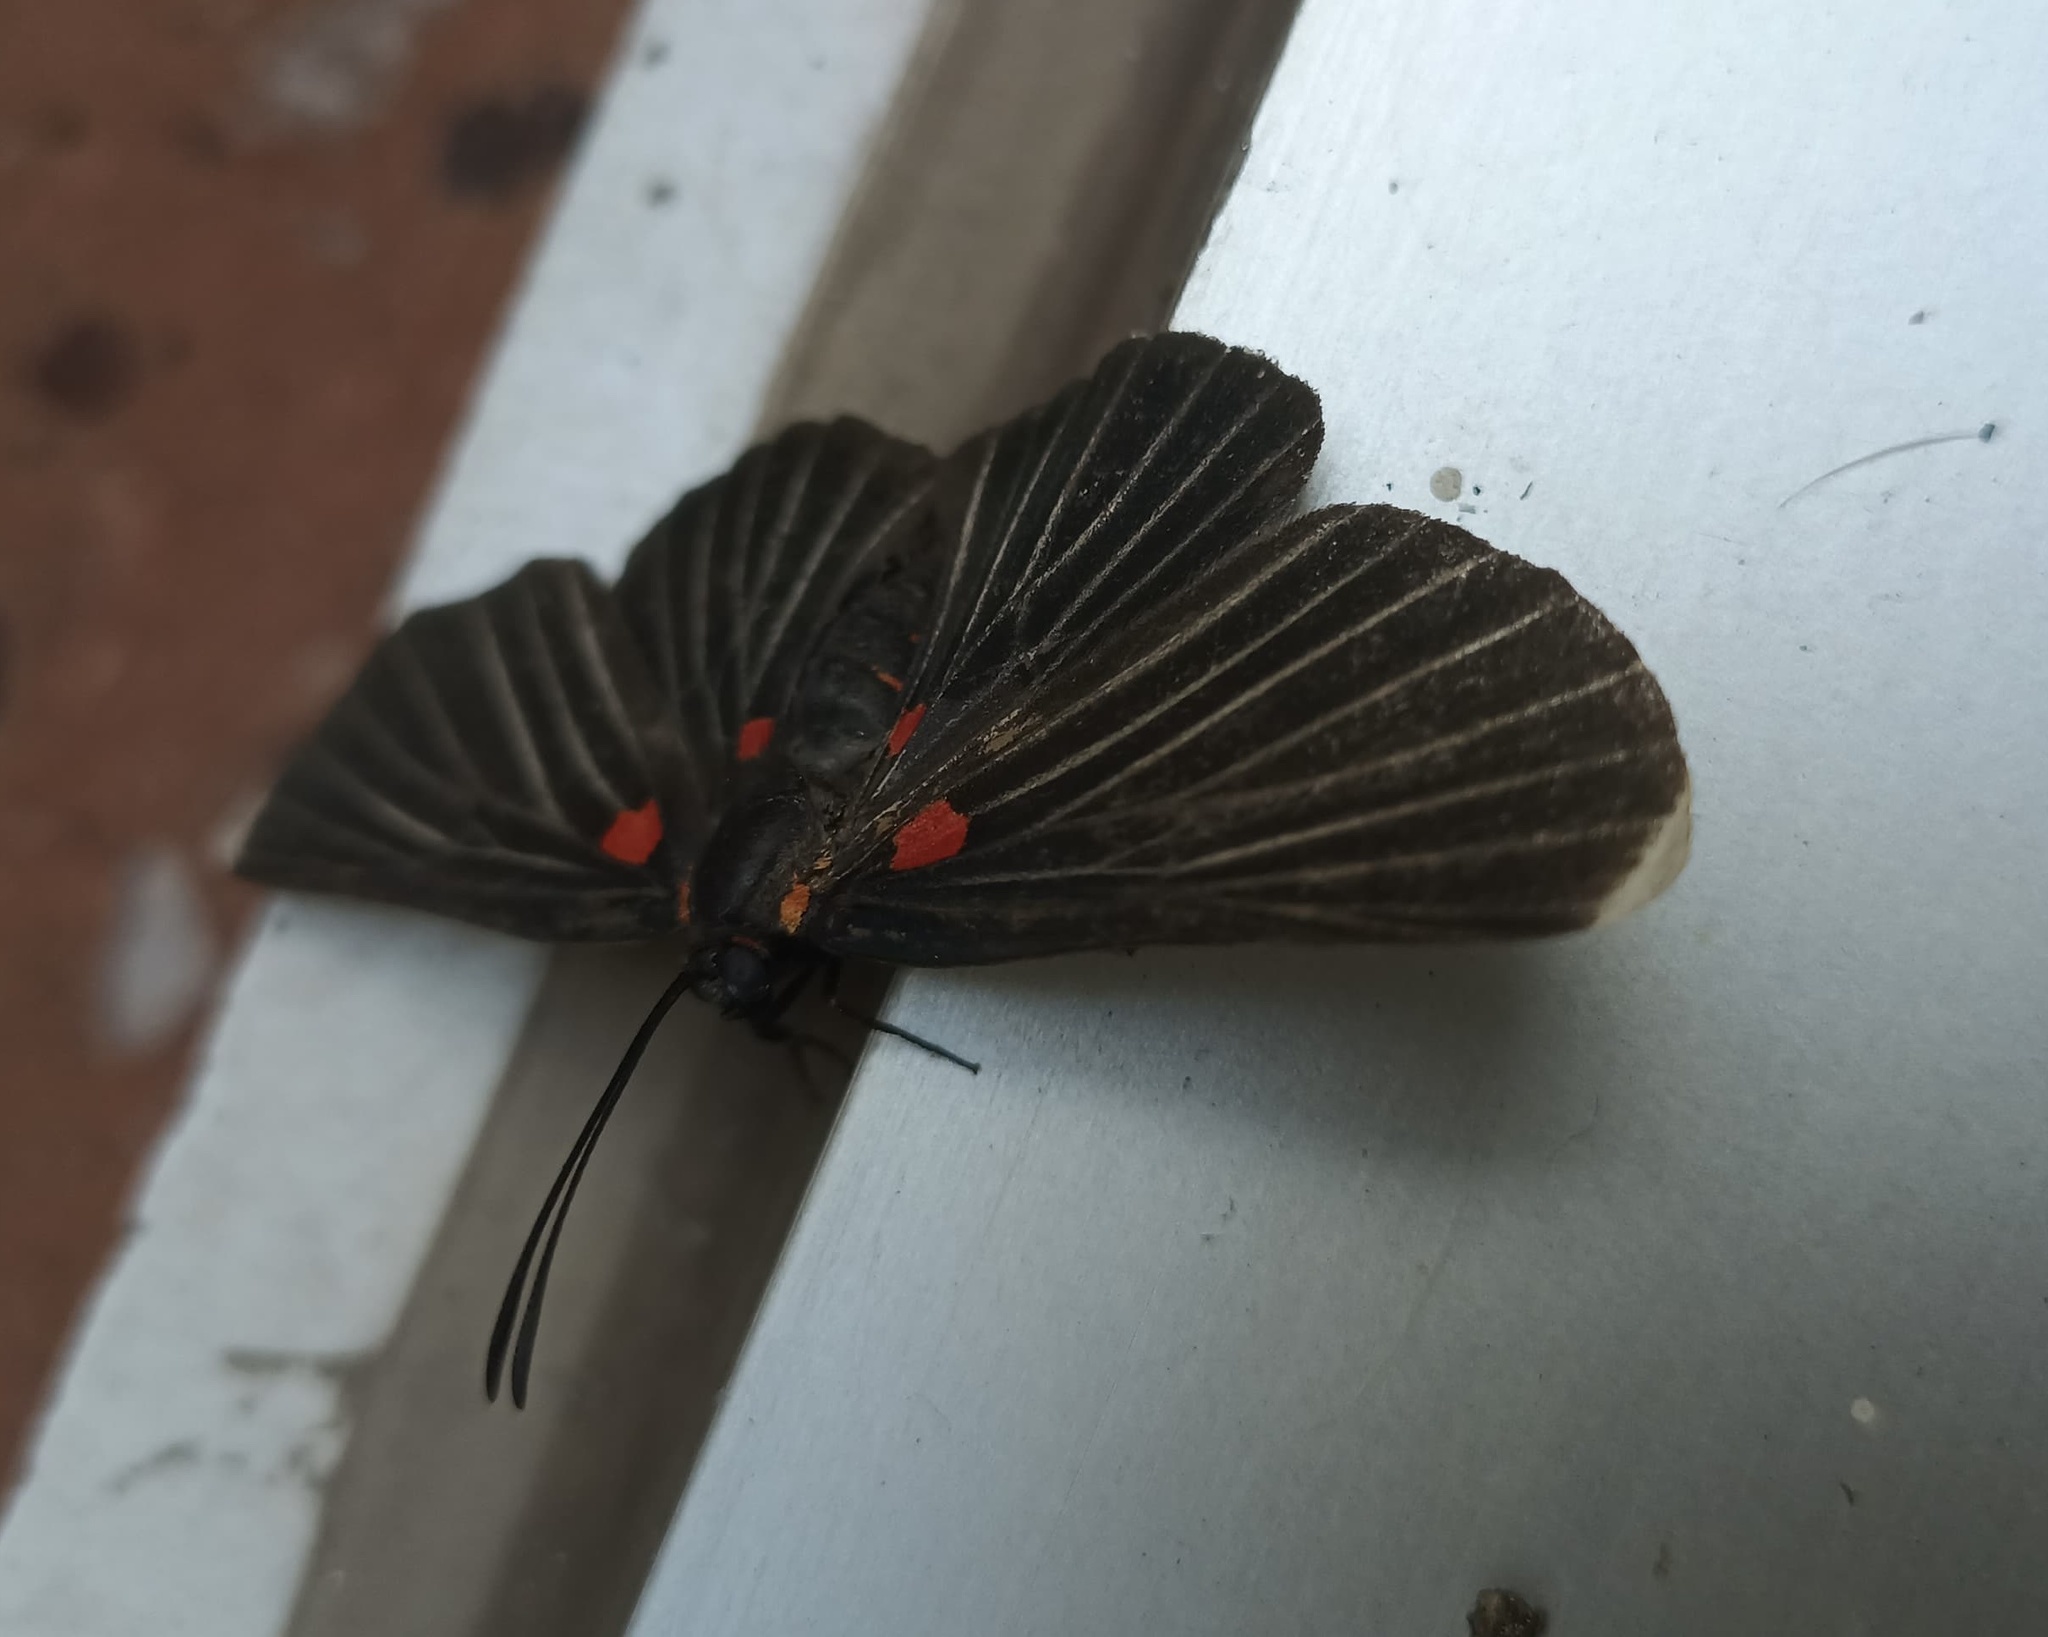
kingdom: Animalia
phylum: Arthropoda
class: Insecta
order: Lepidoptera
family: Lycaenidae
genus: Melanis
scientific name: Melanis
